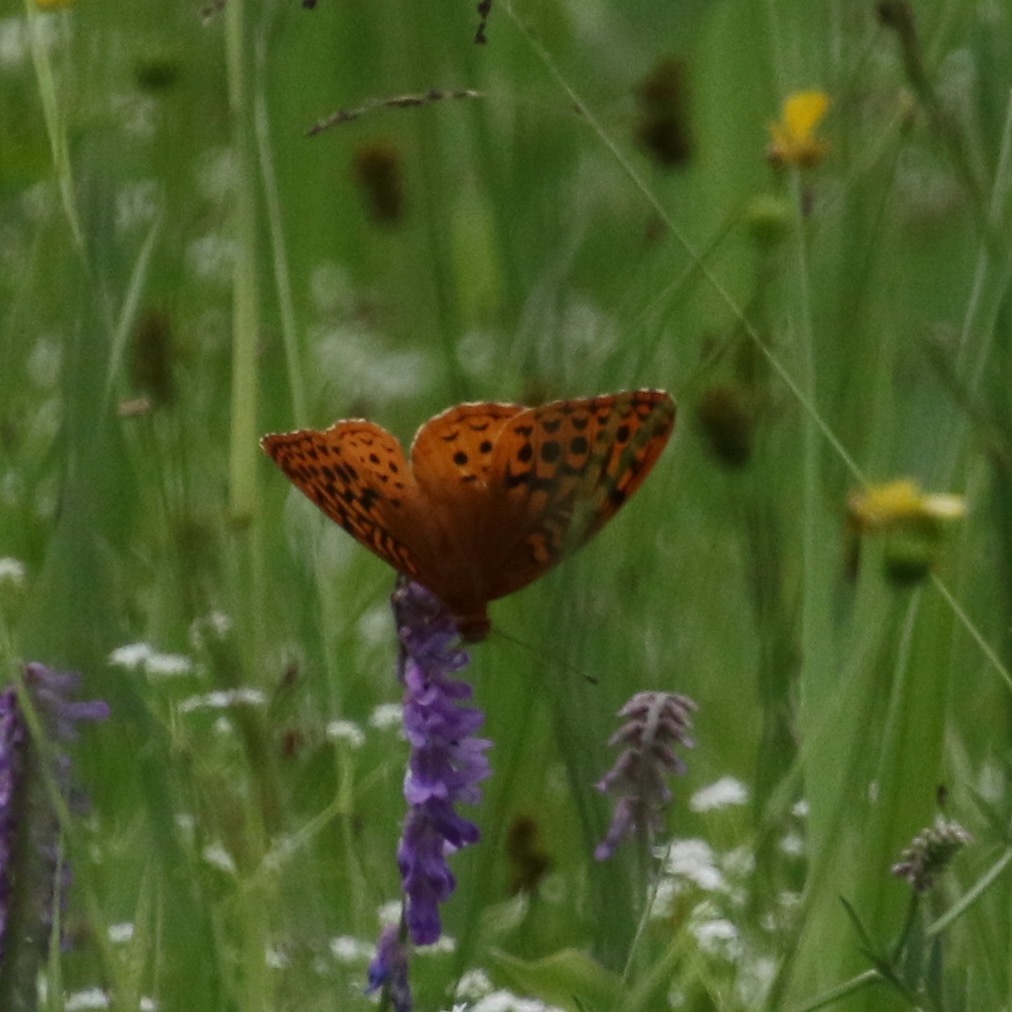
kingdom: Animalia
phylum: Arthropoda
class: Insecta
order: Lepidoptera
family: Nymphalidae
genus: Speyeria
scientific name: Speyeria cybele
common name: Great spangled fritillary
